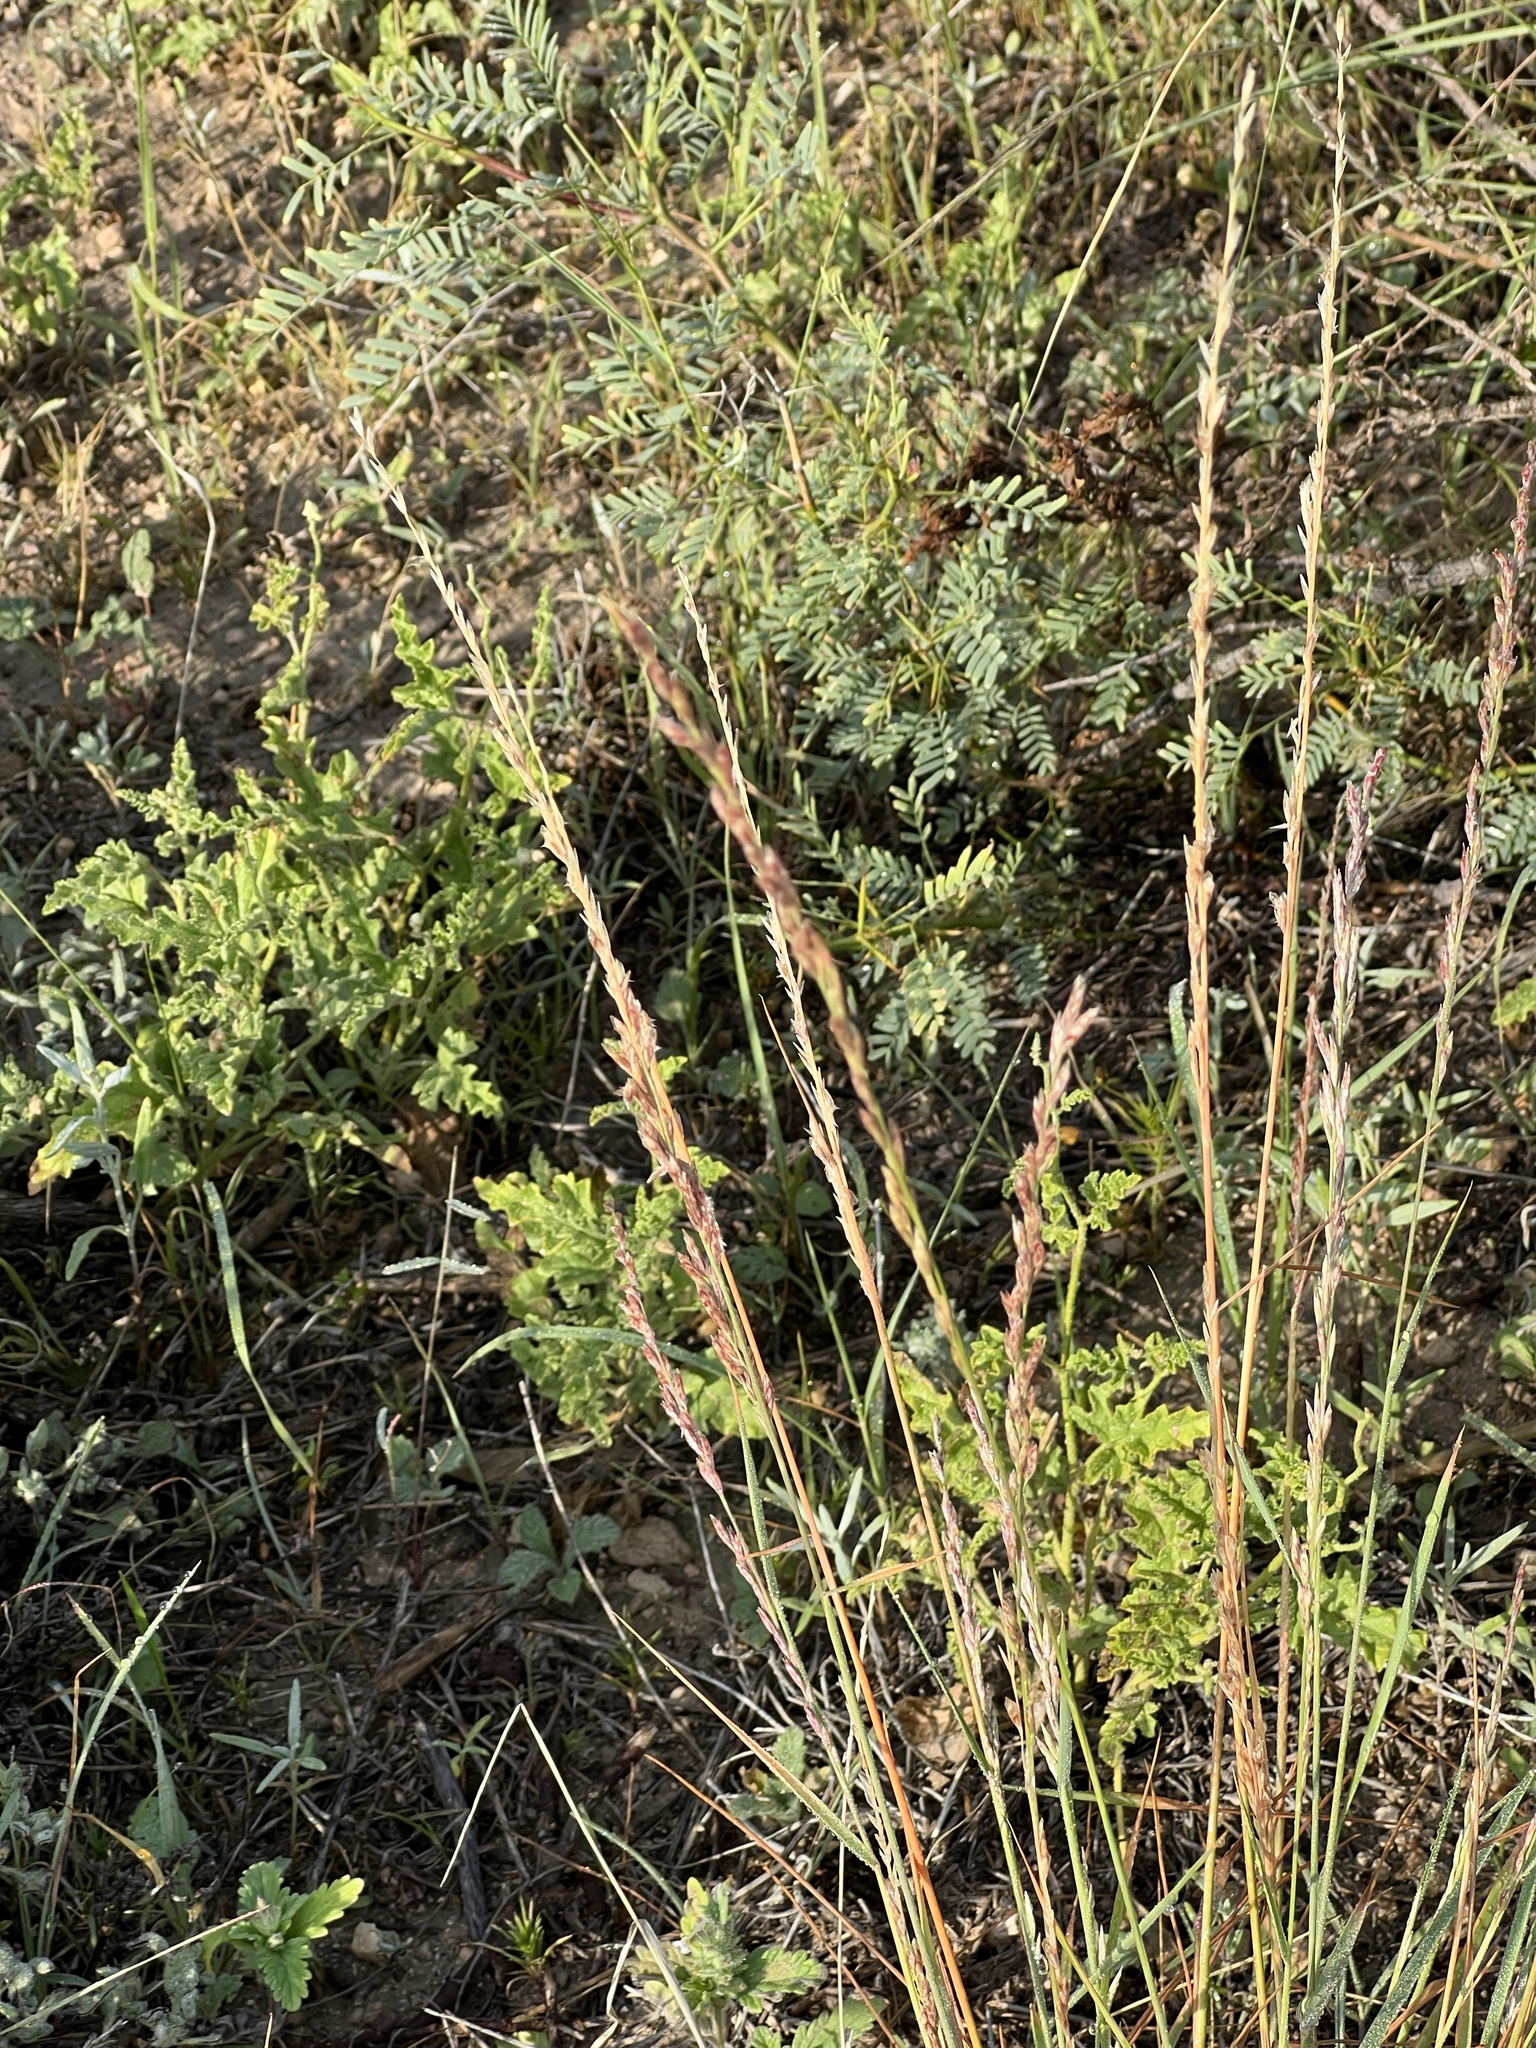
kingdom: Plantae
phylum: Tracheophyta
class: Liliopsida
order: Poales
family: Poaceae
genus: Tridentopsis
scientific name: Tridentopsis mutica
